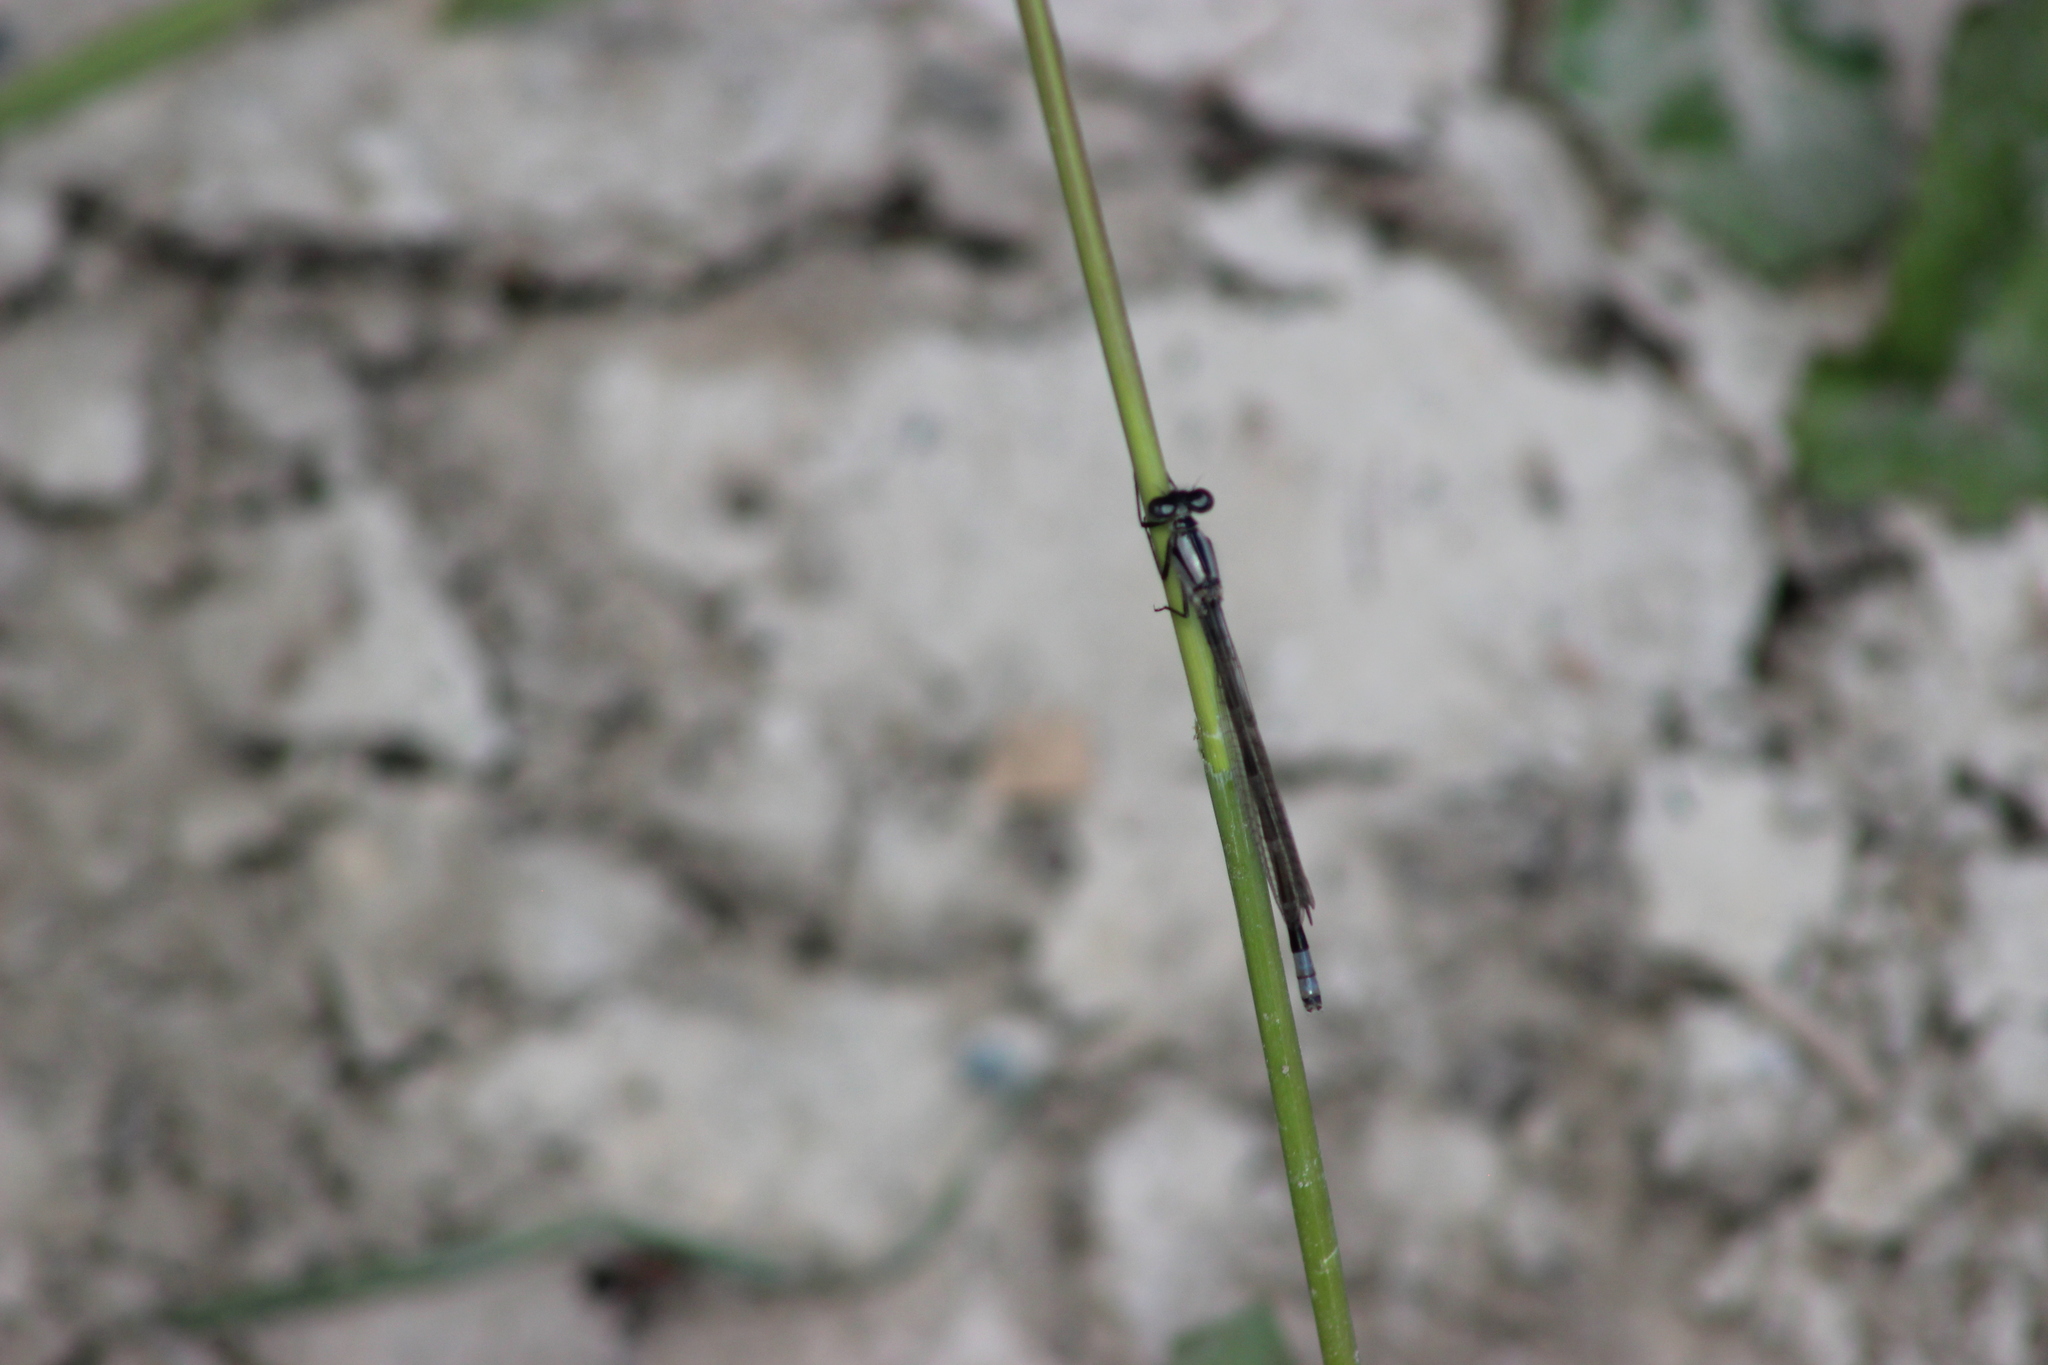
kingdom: Animalia
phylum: Arthropoda
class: Insecta
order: Odonata
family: Coenagrionidae
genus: Enallagma
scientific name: Enallagma cyathigerum
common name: Common blue damselfly
